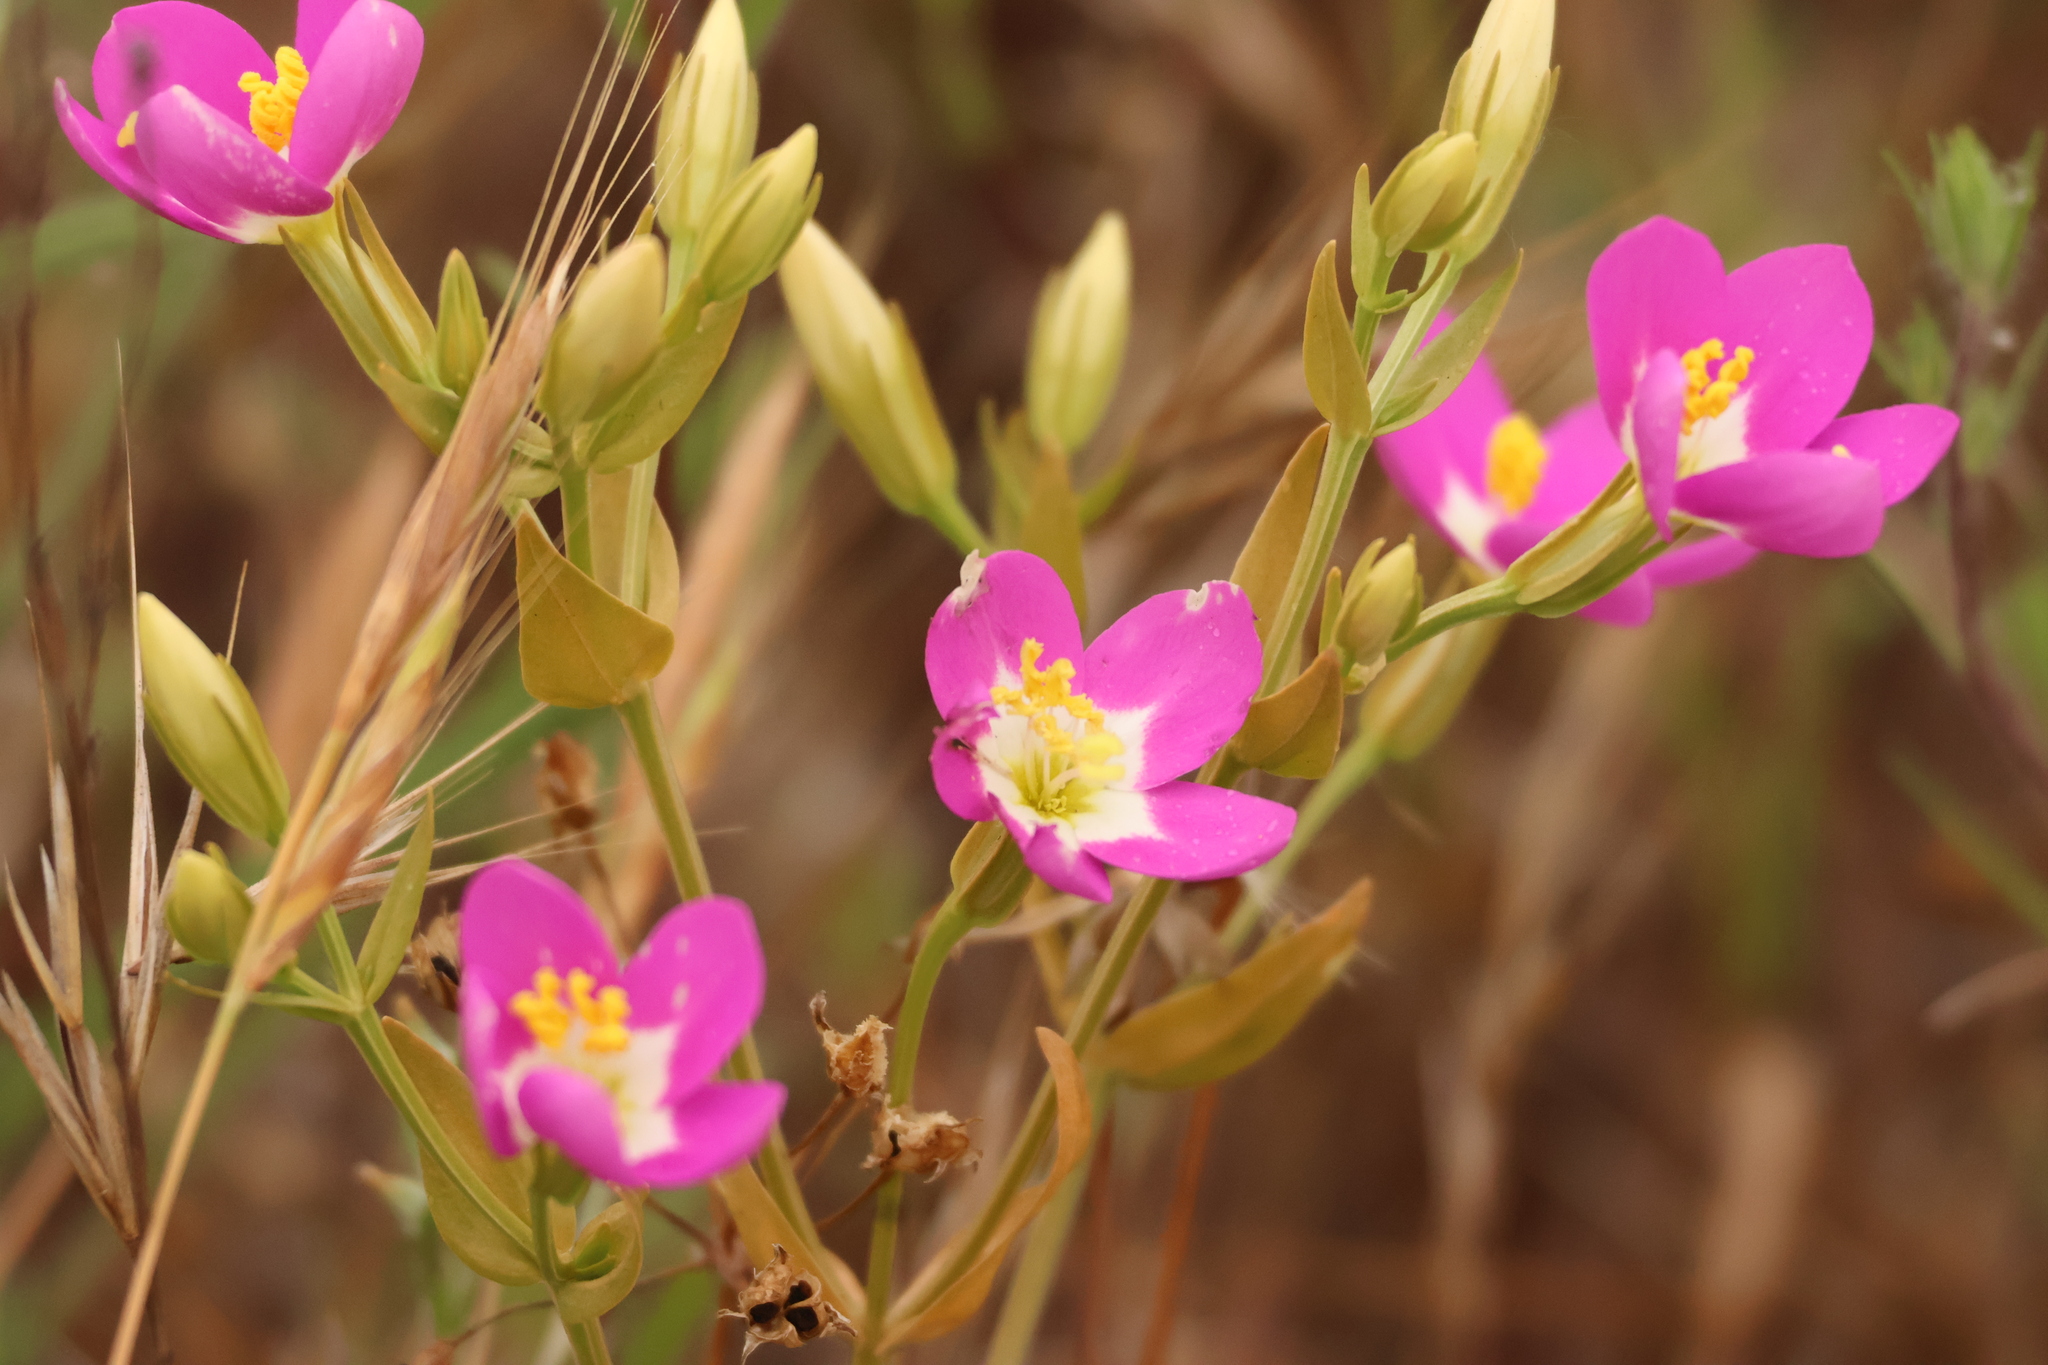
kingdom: Plantae
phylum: Tracheophyta
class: Magnoliopsida
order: Gentianales
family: Gentianaceae
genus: Zeltnera
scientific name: Zeltnera venusta
